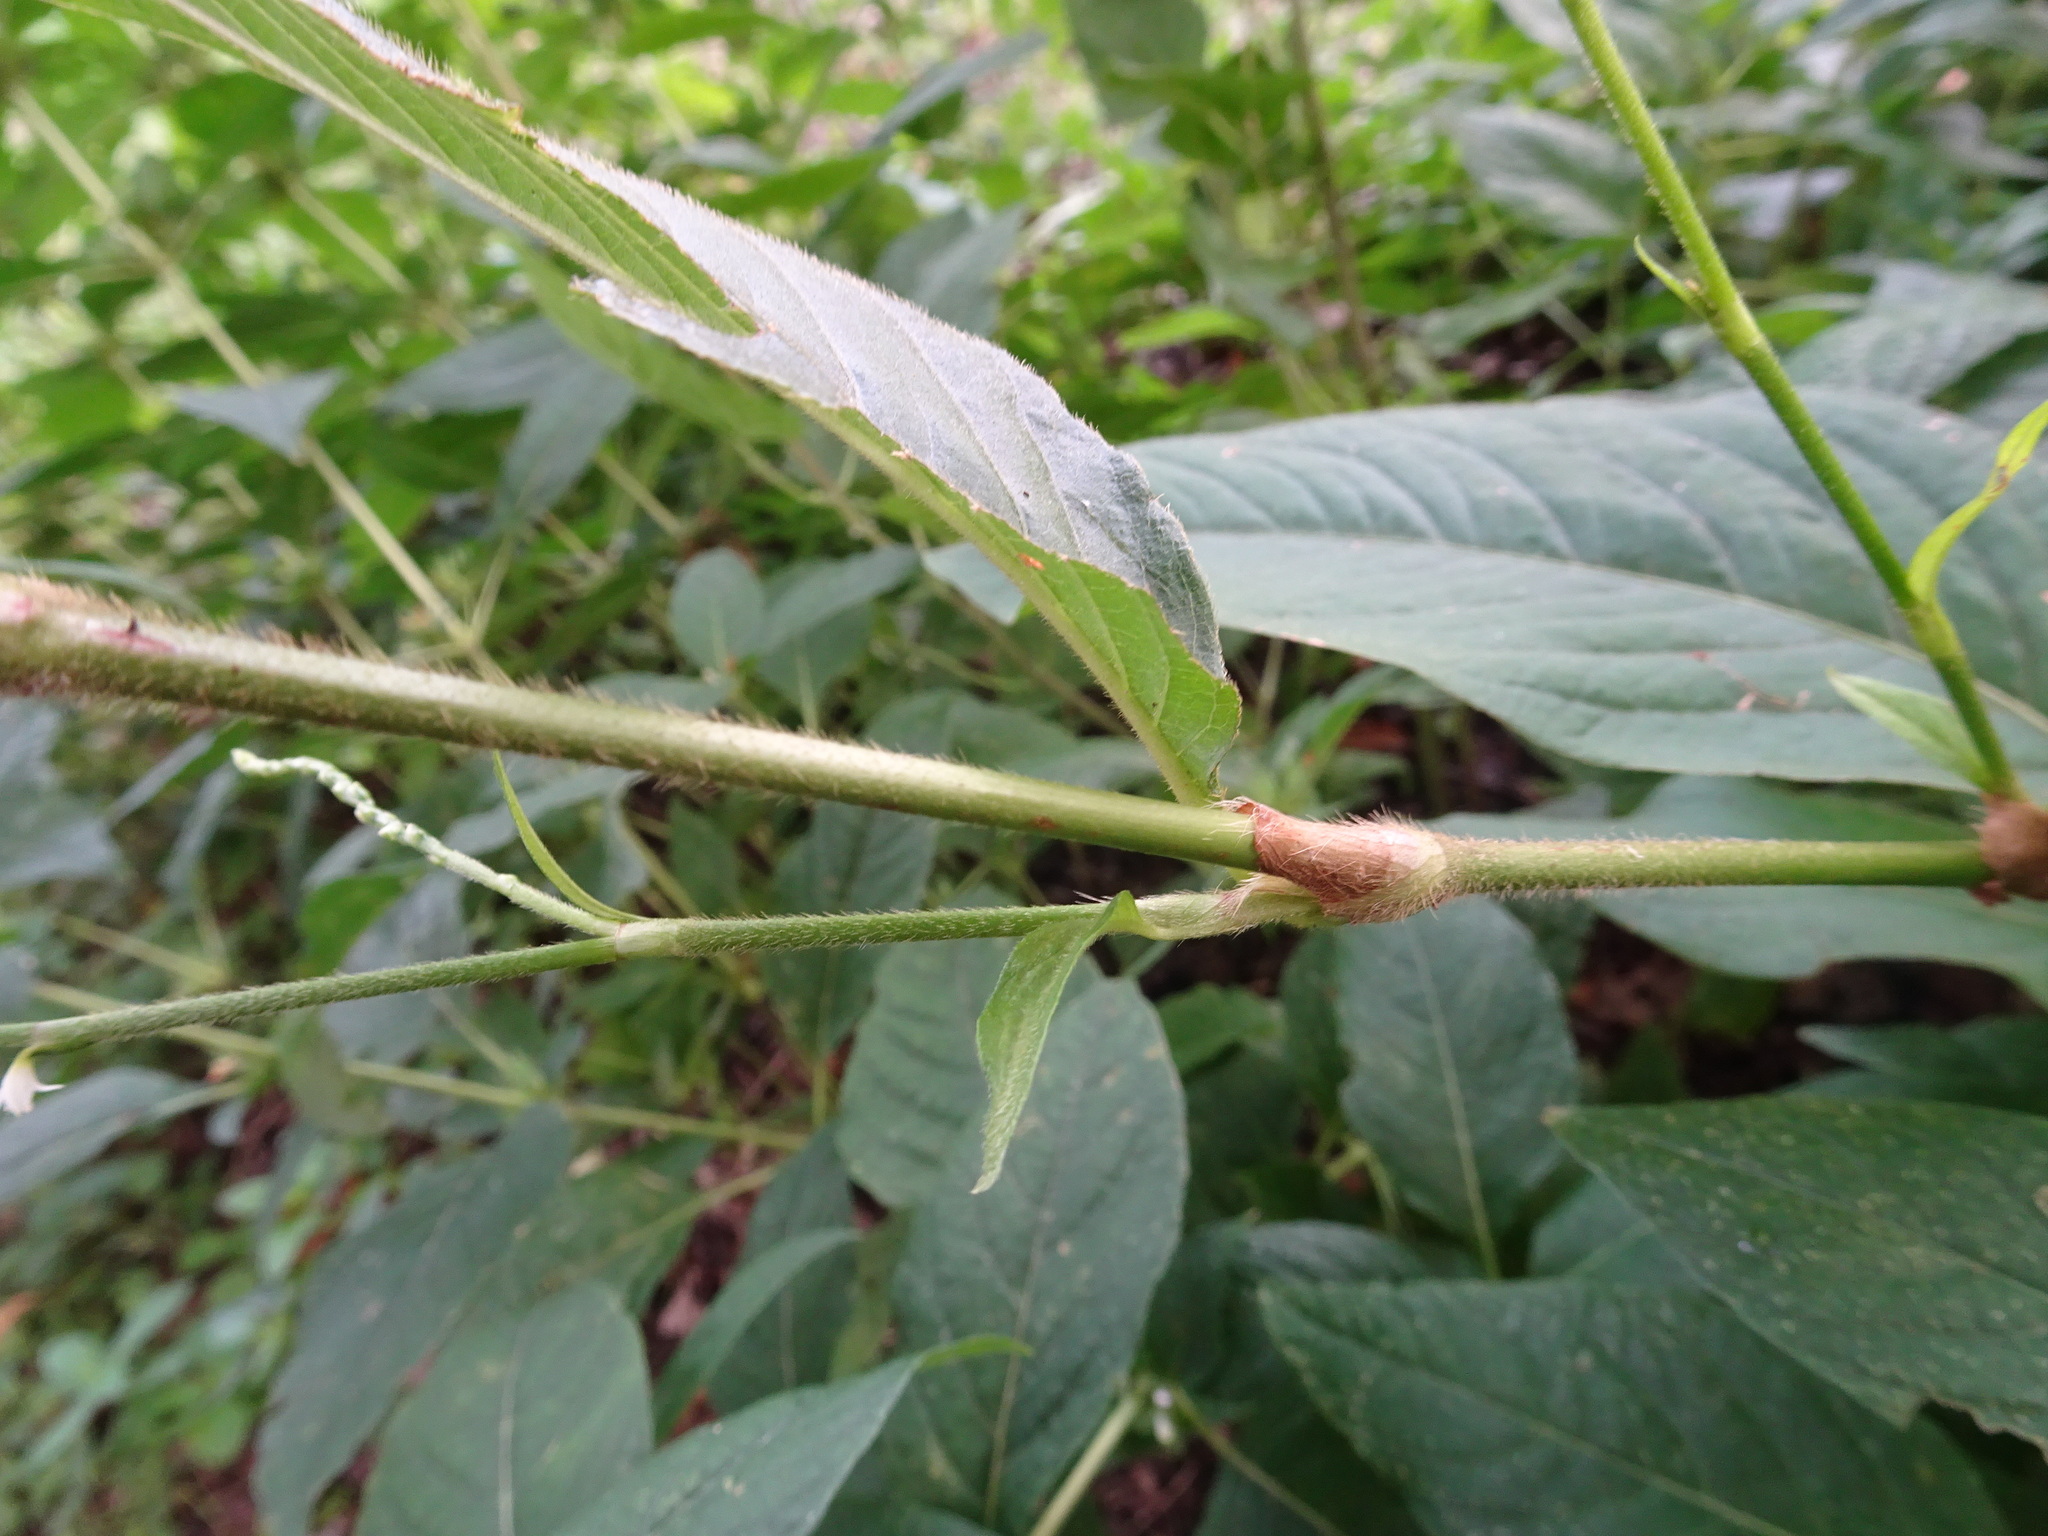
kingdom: Plantae
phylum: Tracheophyta
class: Magnoliopsida
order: Caryophyllales
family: Polygonaceae
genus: Persicaria
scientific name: Persicaria virginiana
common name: Jumpseed
